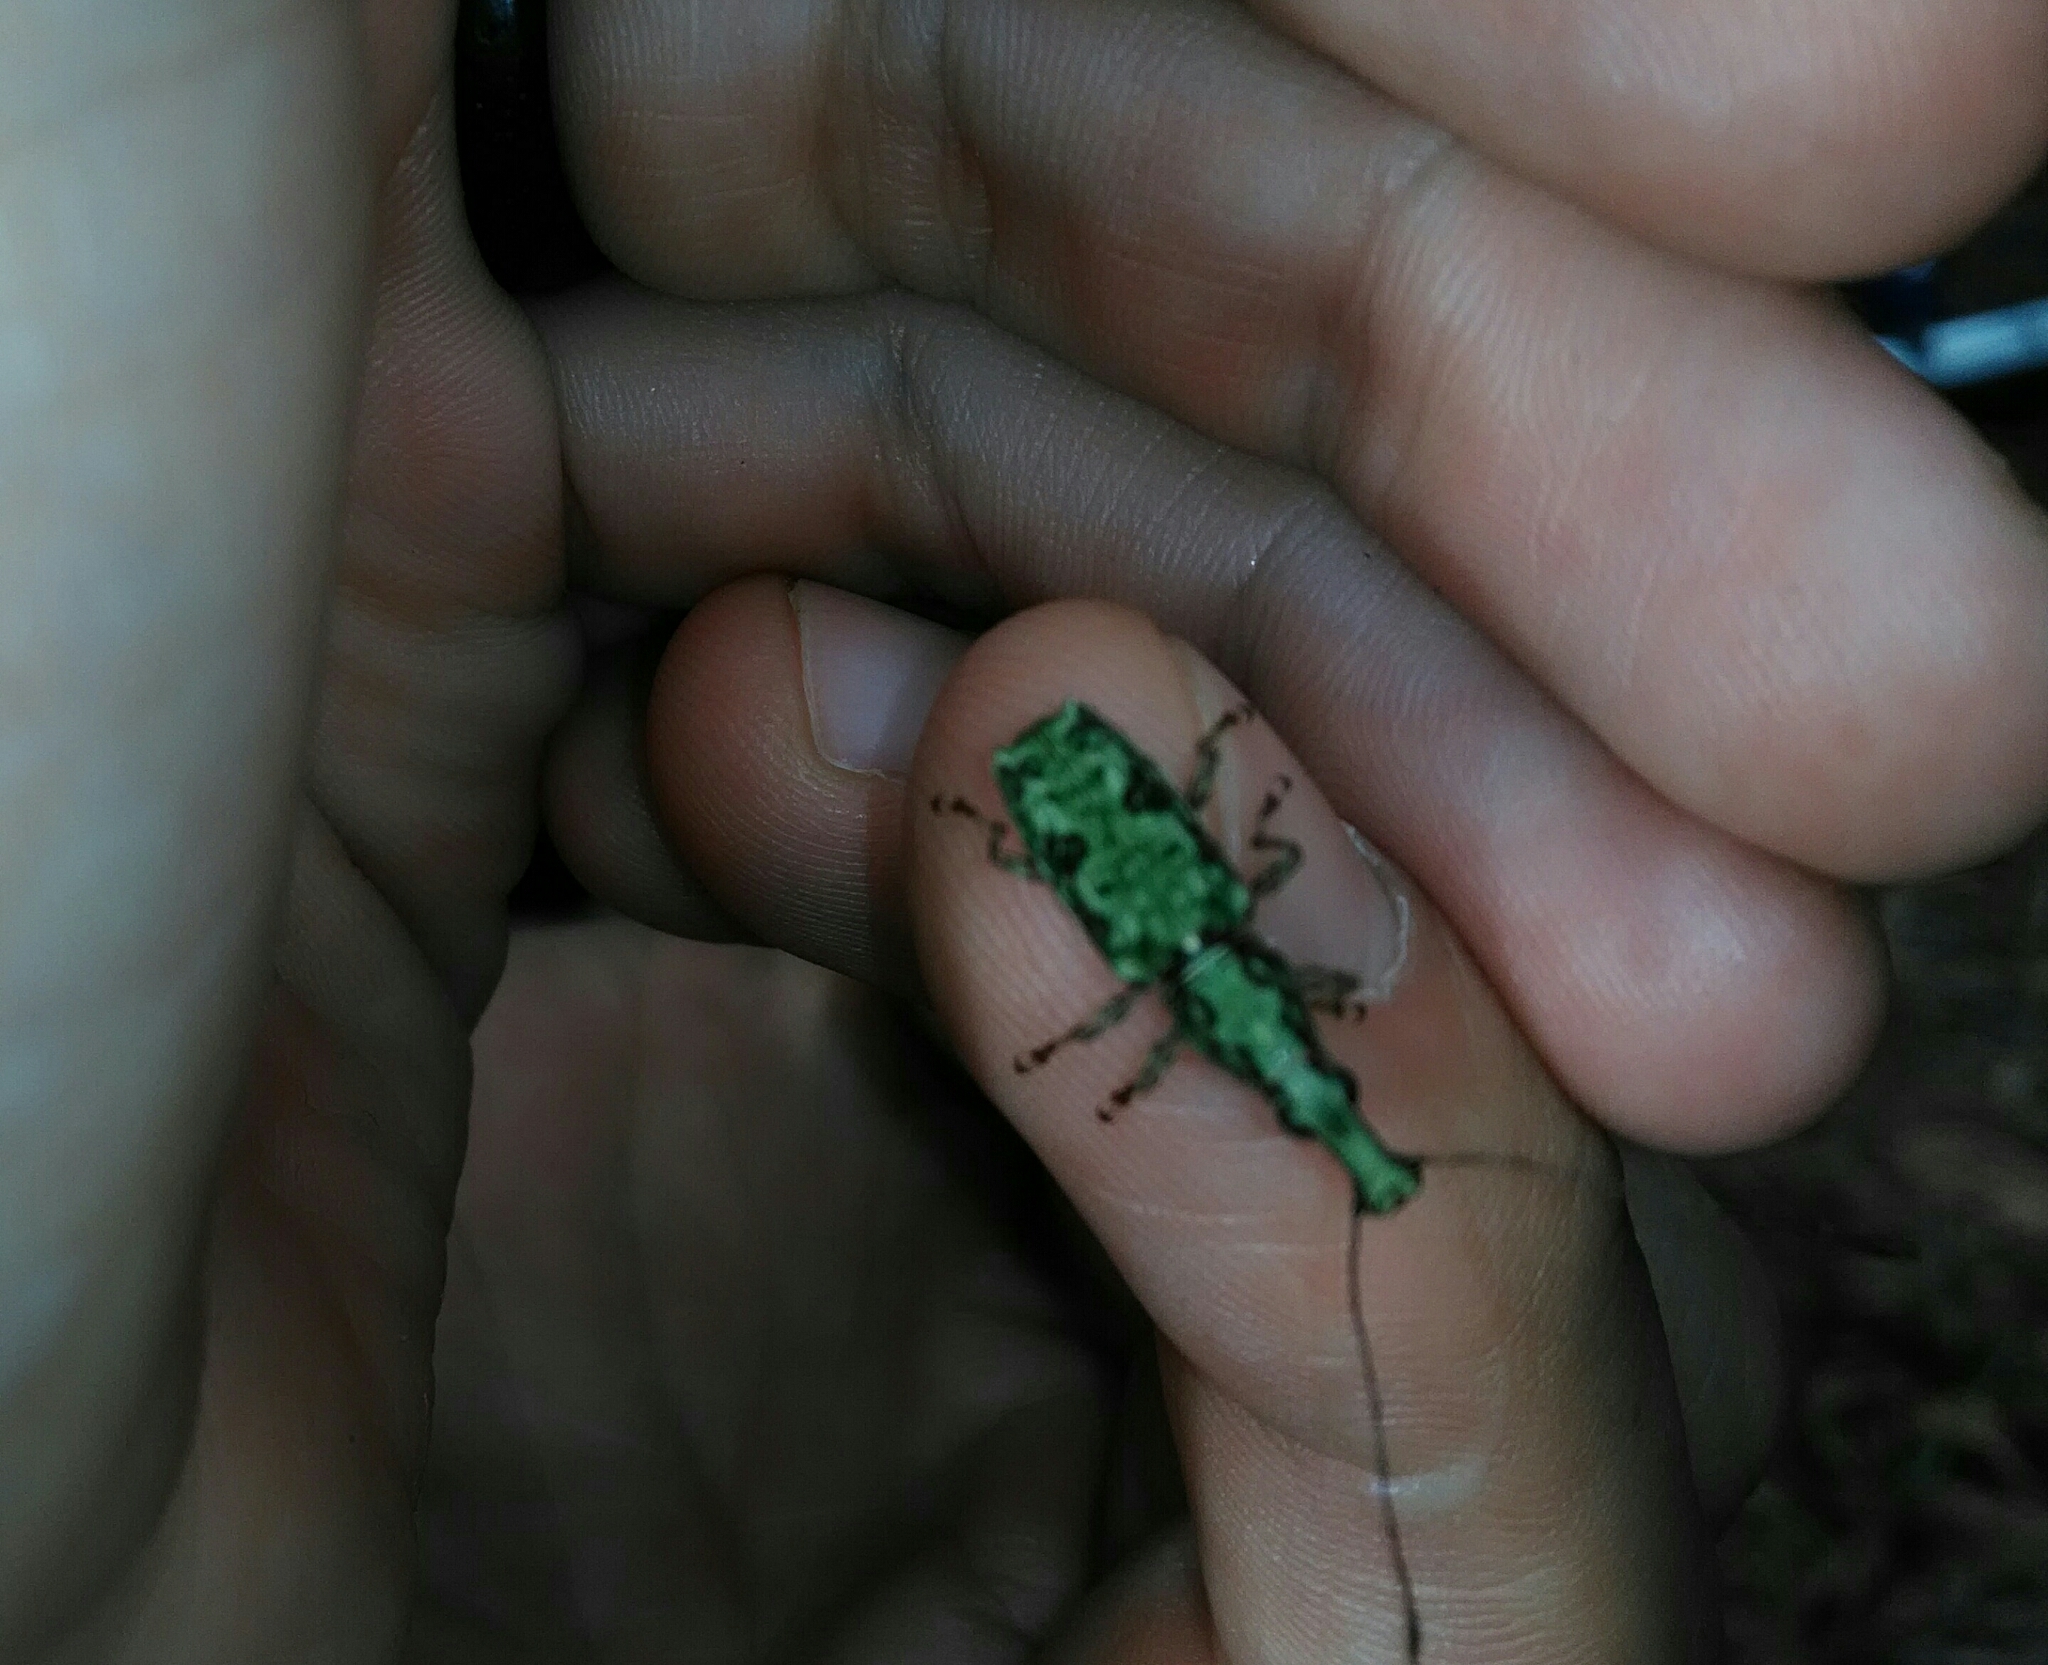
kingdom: Animalia
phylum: Arthropoda
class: Insecta
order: Coleoptera
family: Anthribidae
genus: Hypselotropis
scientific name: Hypselotropis
